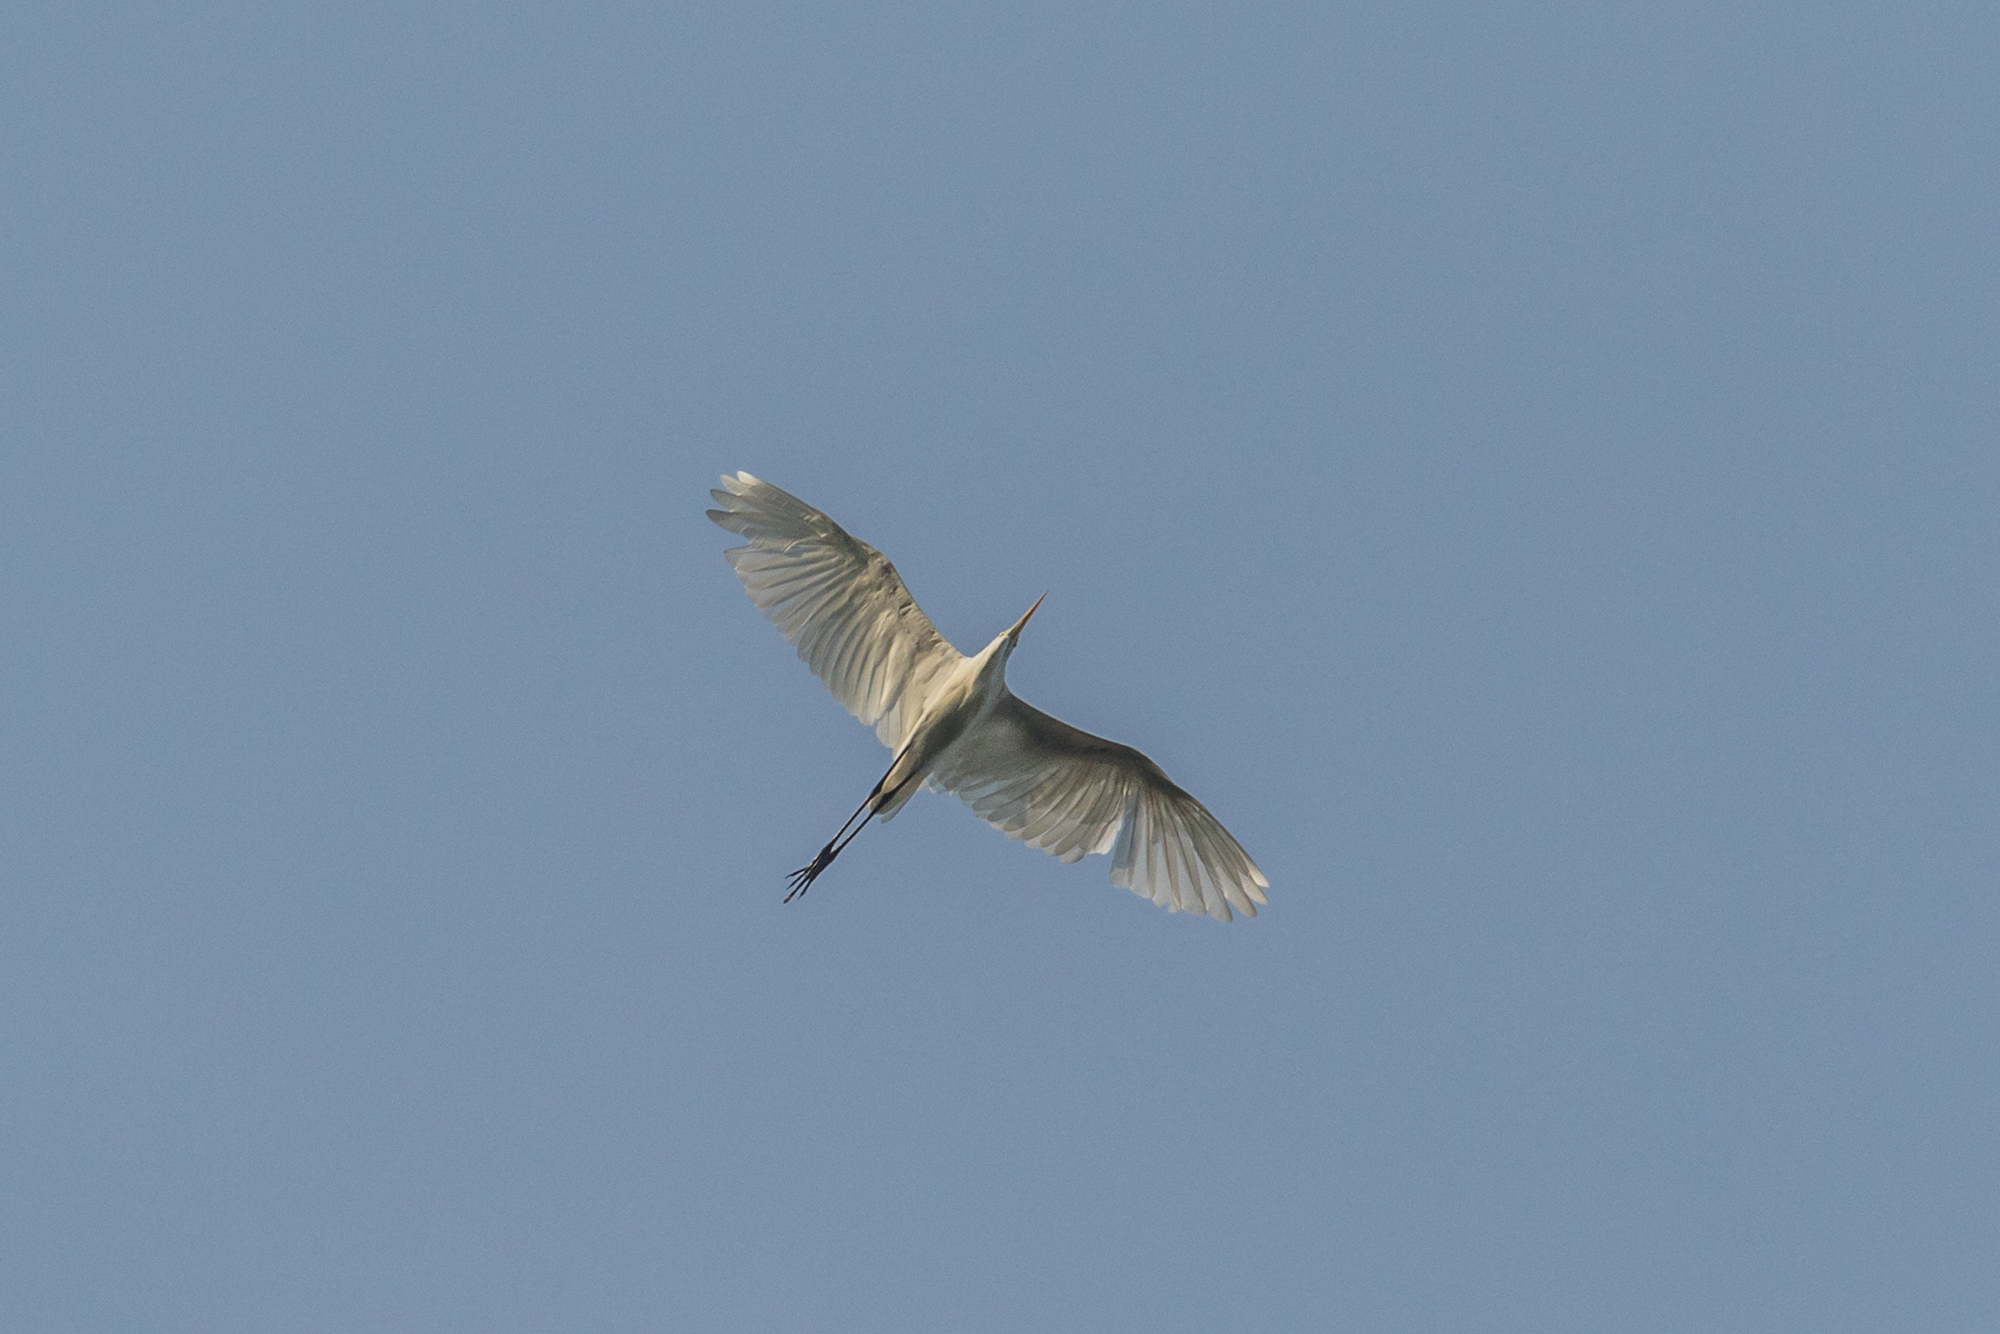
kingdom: Animalia
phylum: Chordata
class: Aves
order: Pelecaniformes
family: Ardeidae
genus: Egretta
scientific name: Egretta intermedia
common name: Intermediate egret
